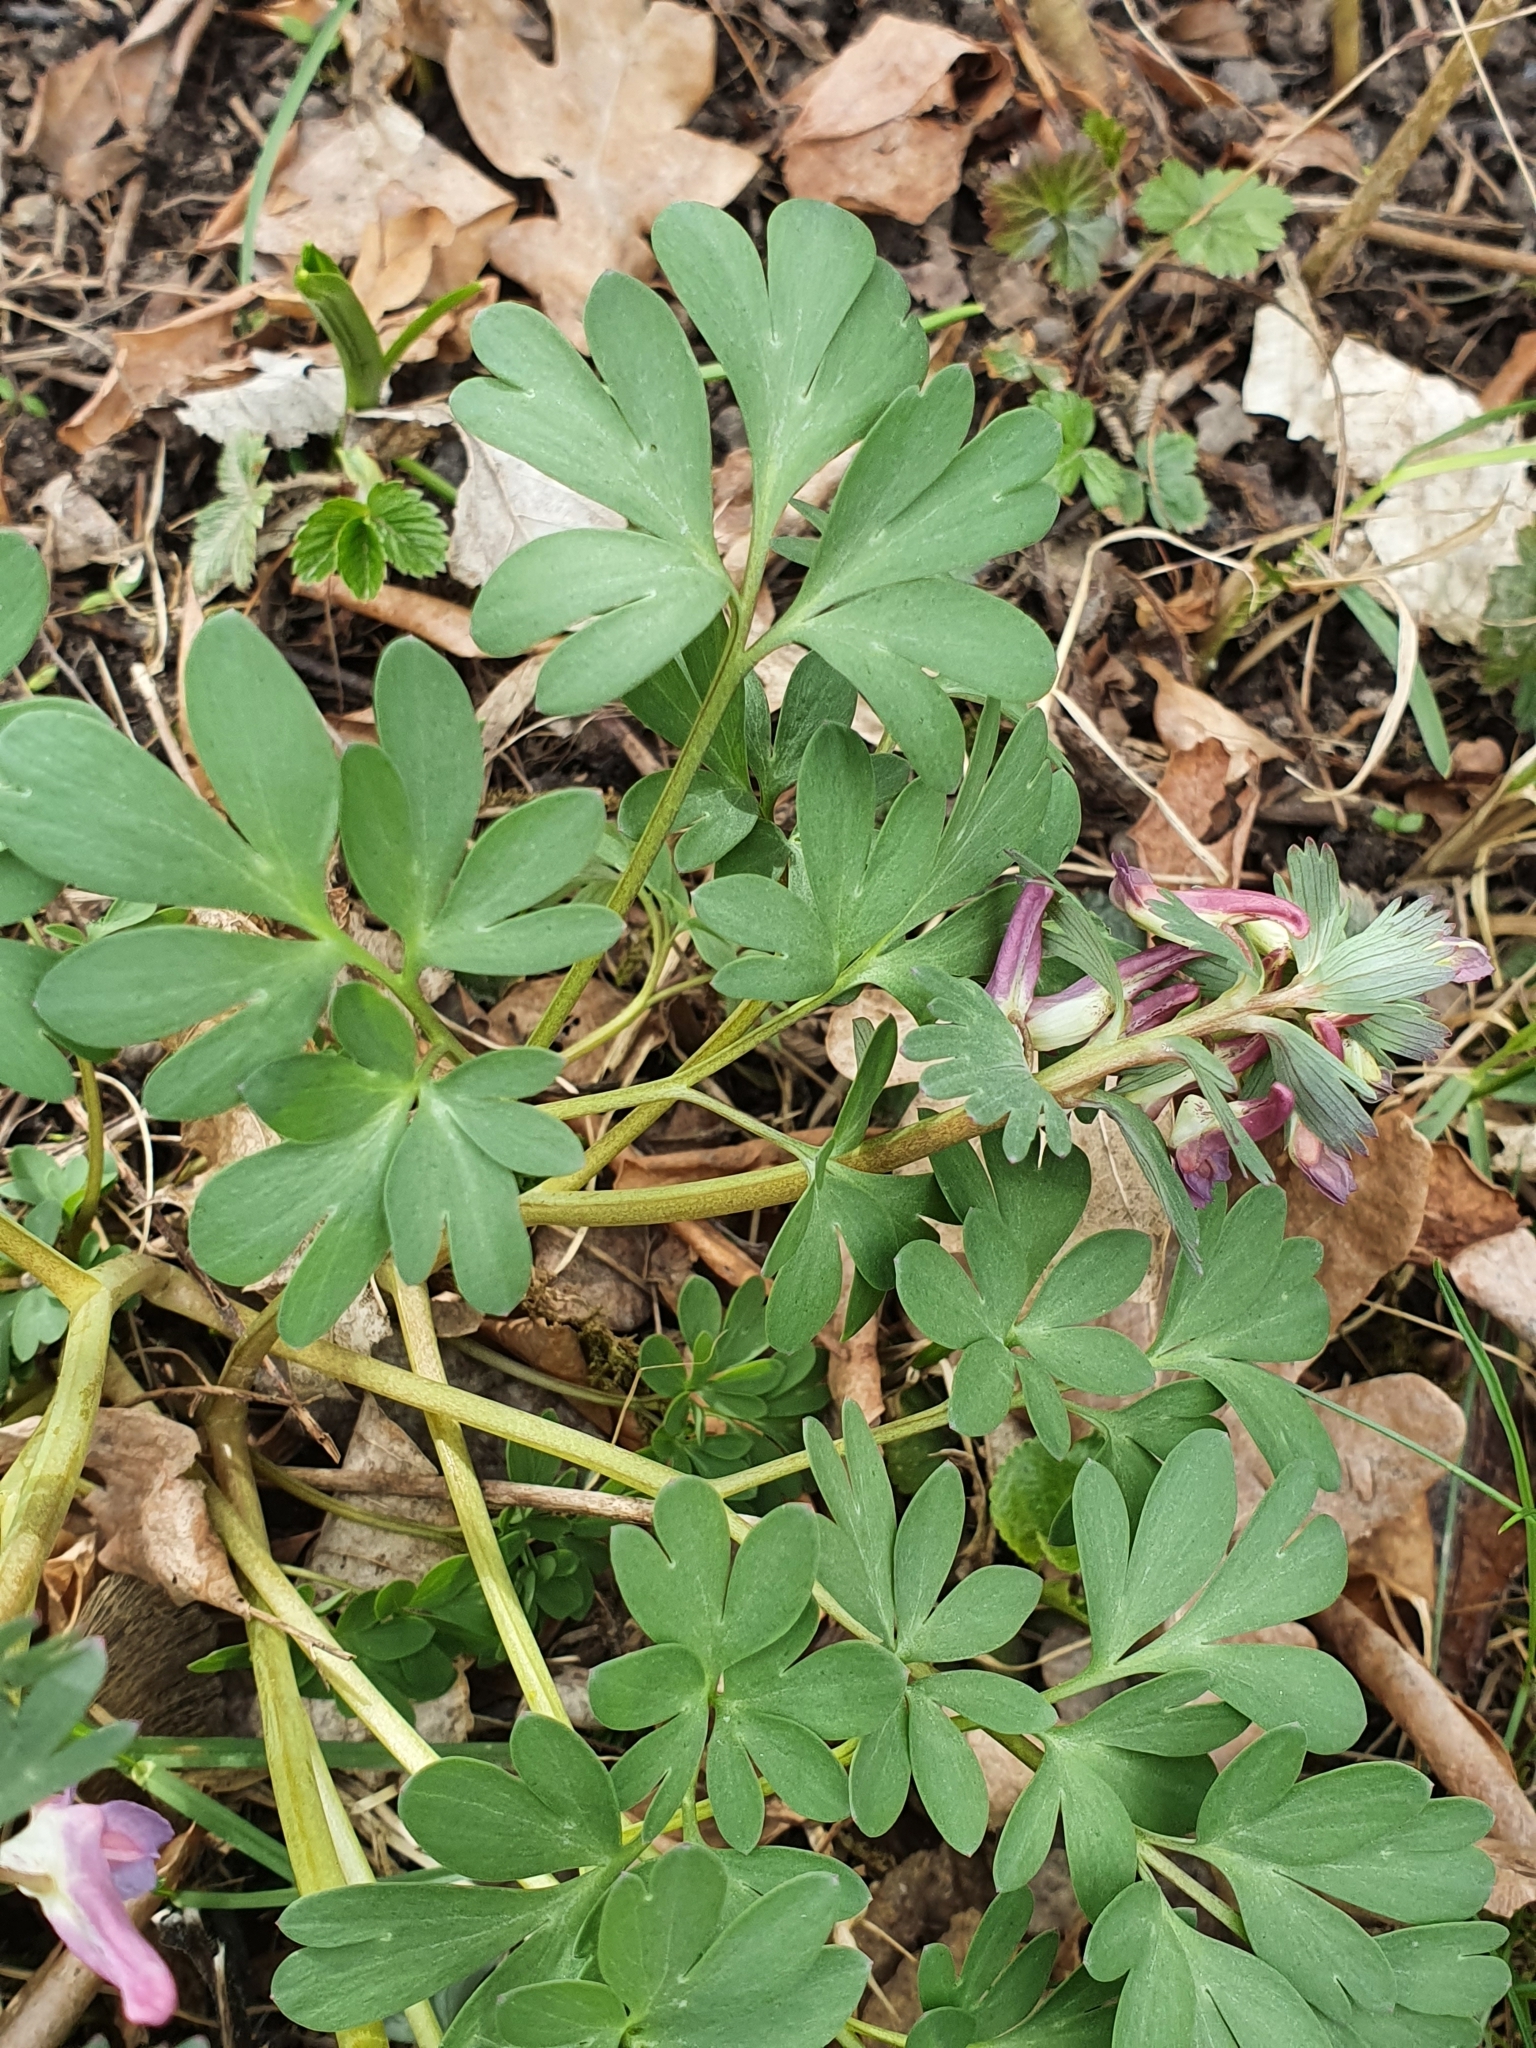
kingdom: Plantae
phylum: Tracheophyta
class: Magnoliopsida
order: Ranunculales
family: Papaveraceae
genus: Corydalis
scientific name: Corydalis solida
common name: Bird-in-a-bush
